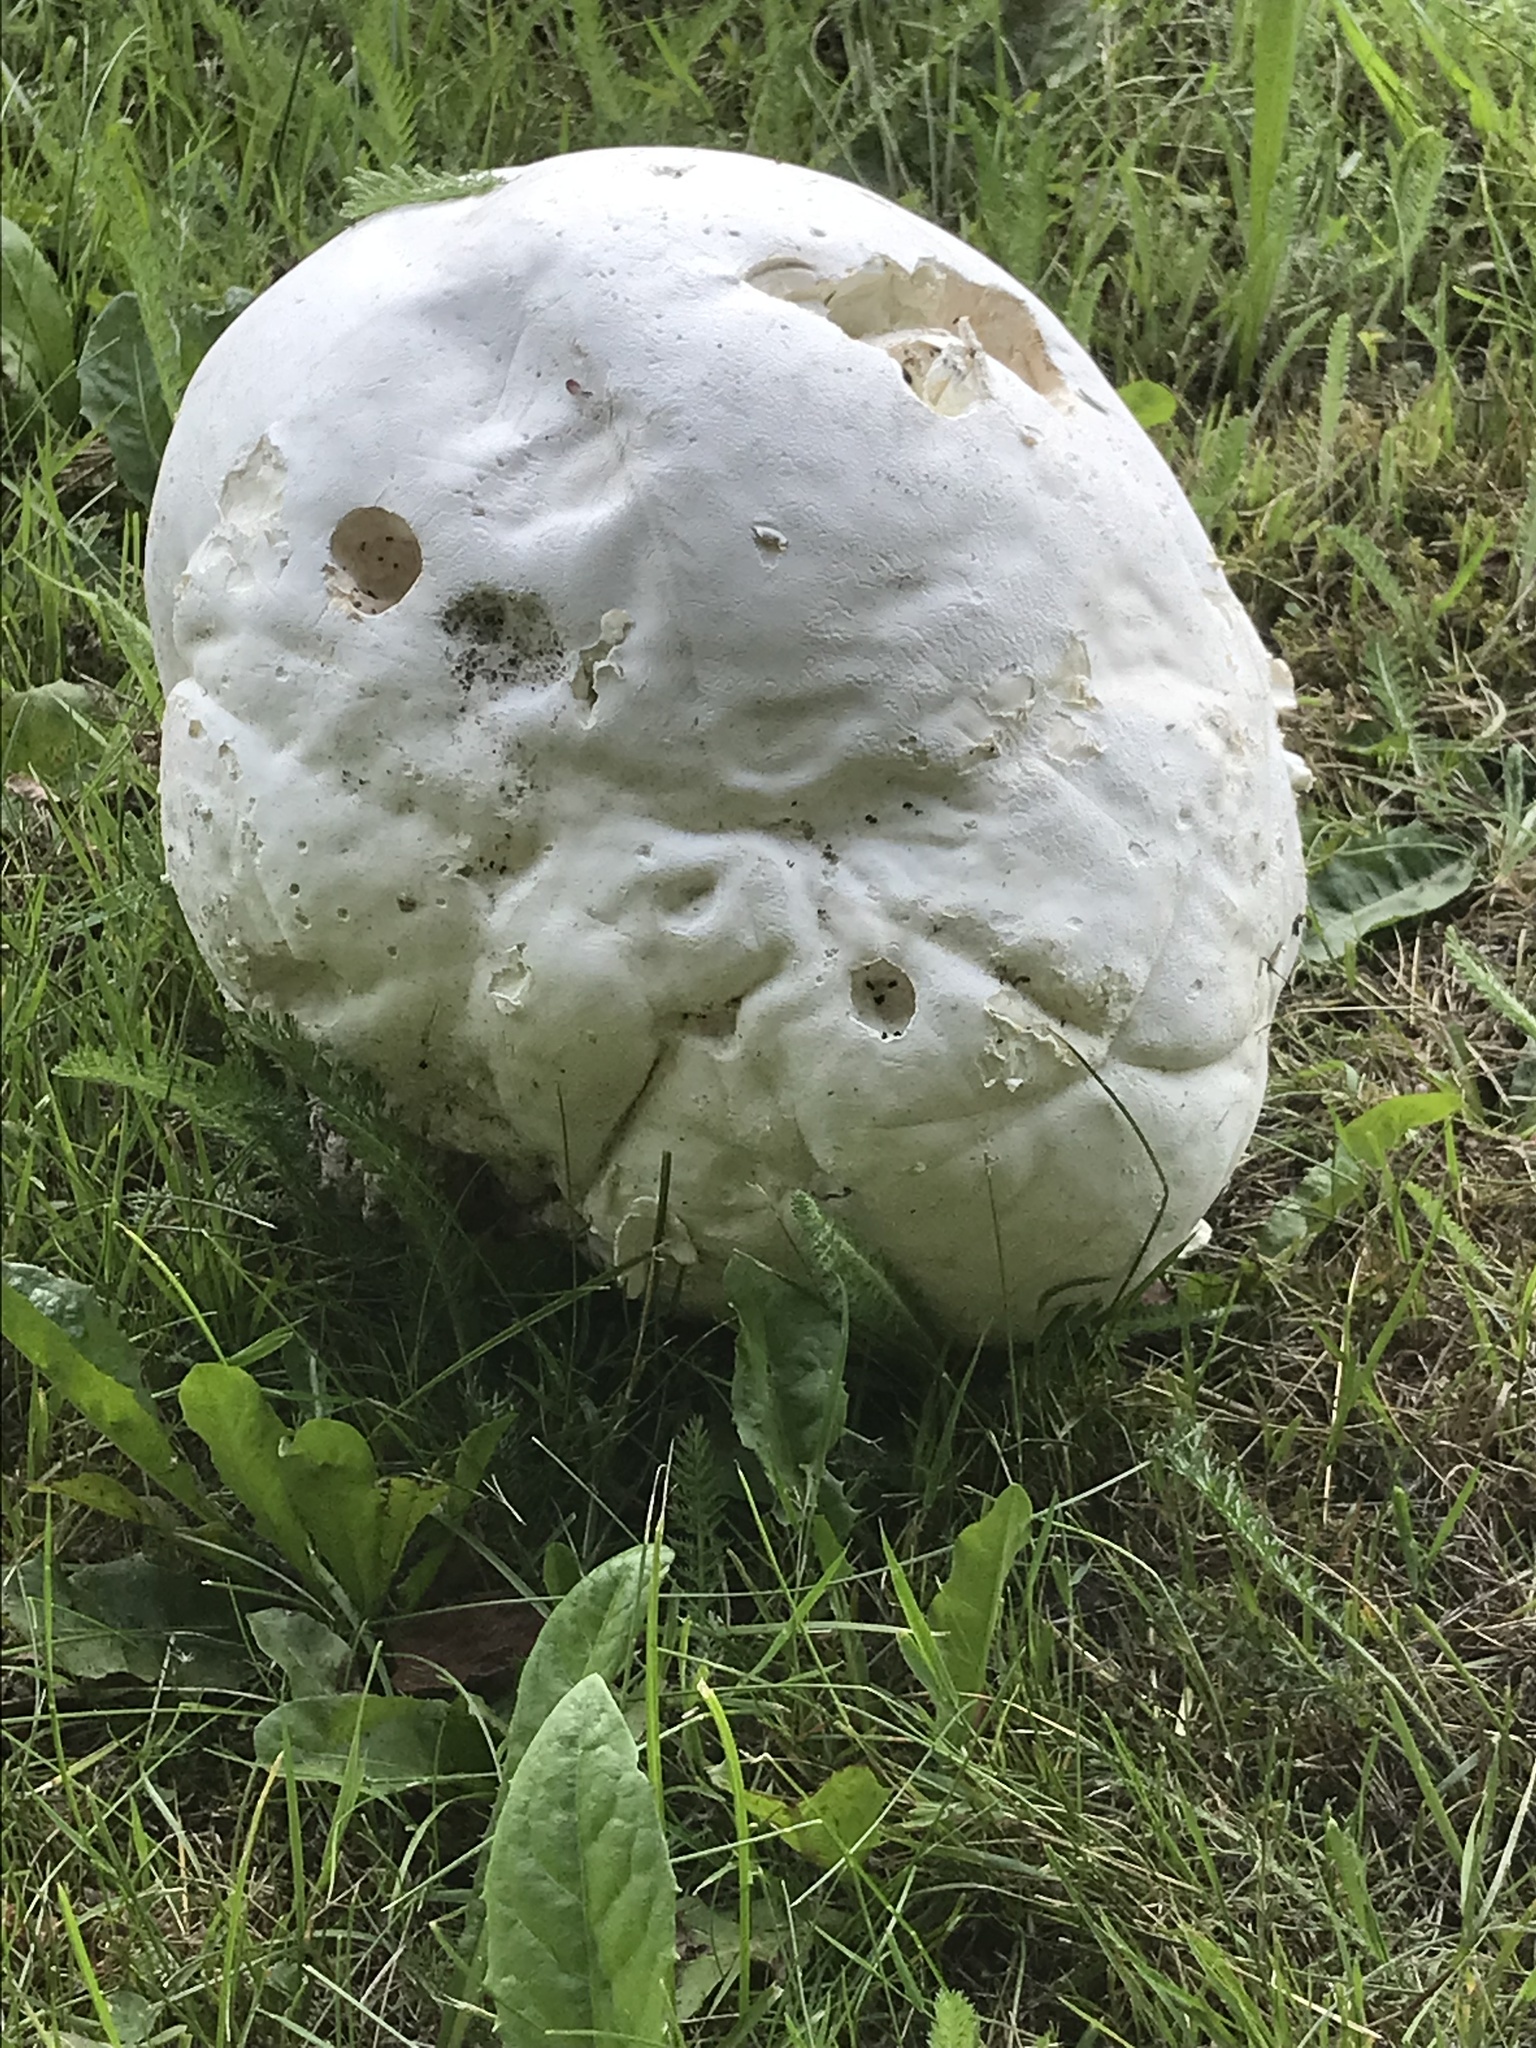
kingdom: Fungi
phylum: Basidiomycota
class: Agaricomycetes
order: Agaricales
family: Lycoperdaceae
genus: Calvatia
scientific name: Calvatia gigantea
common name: Giant puffball
